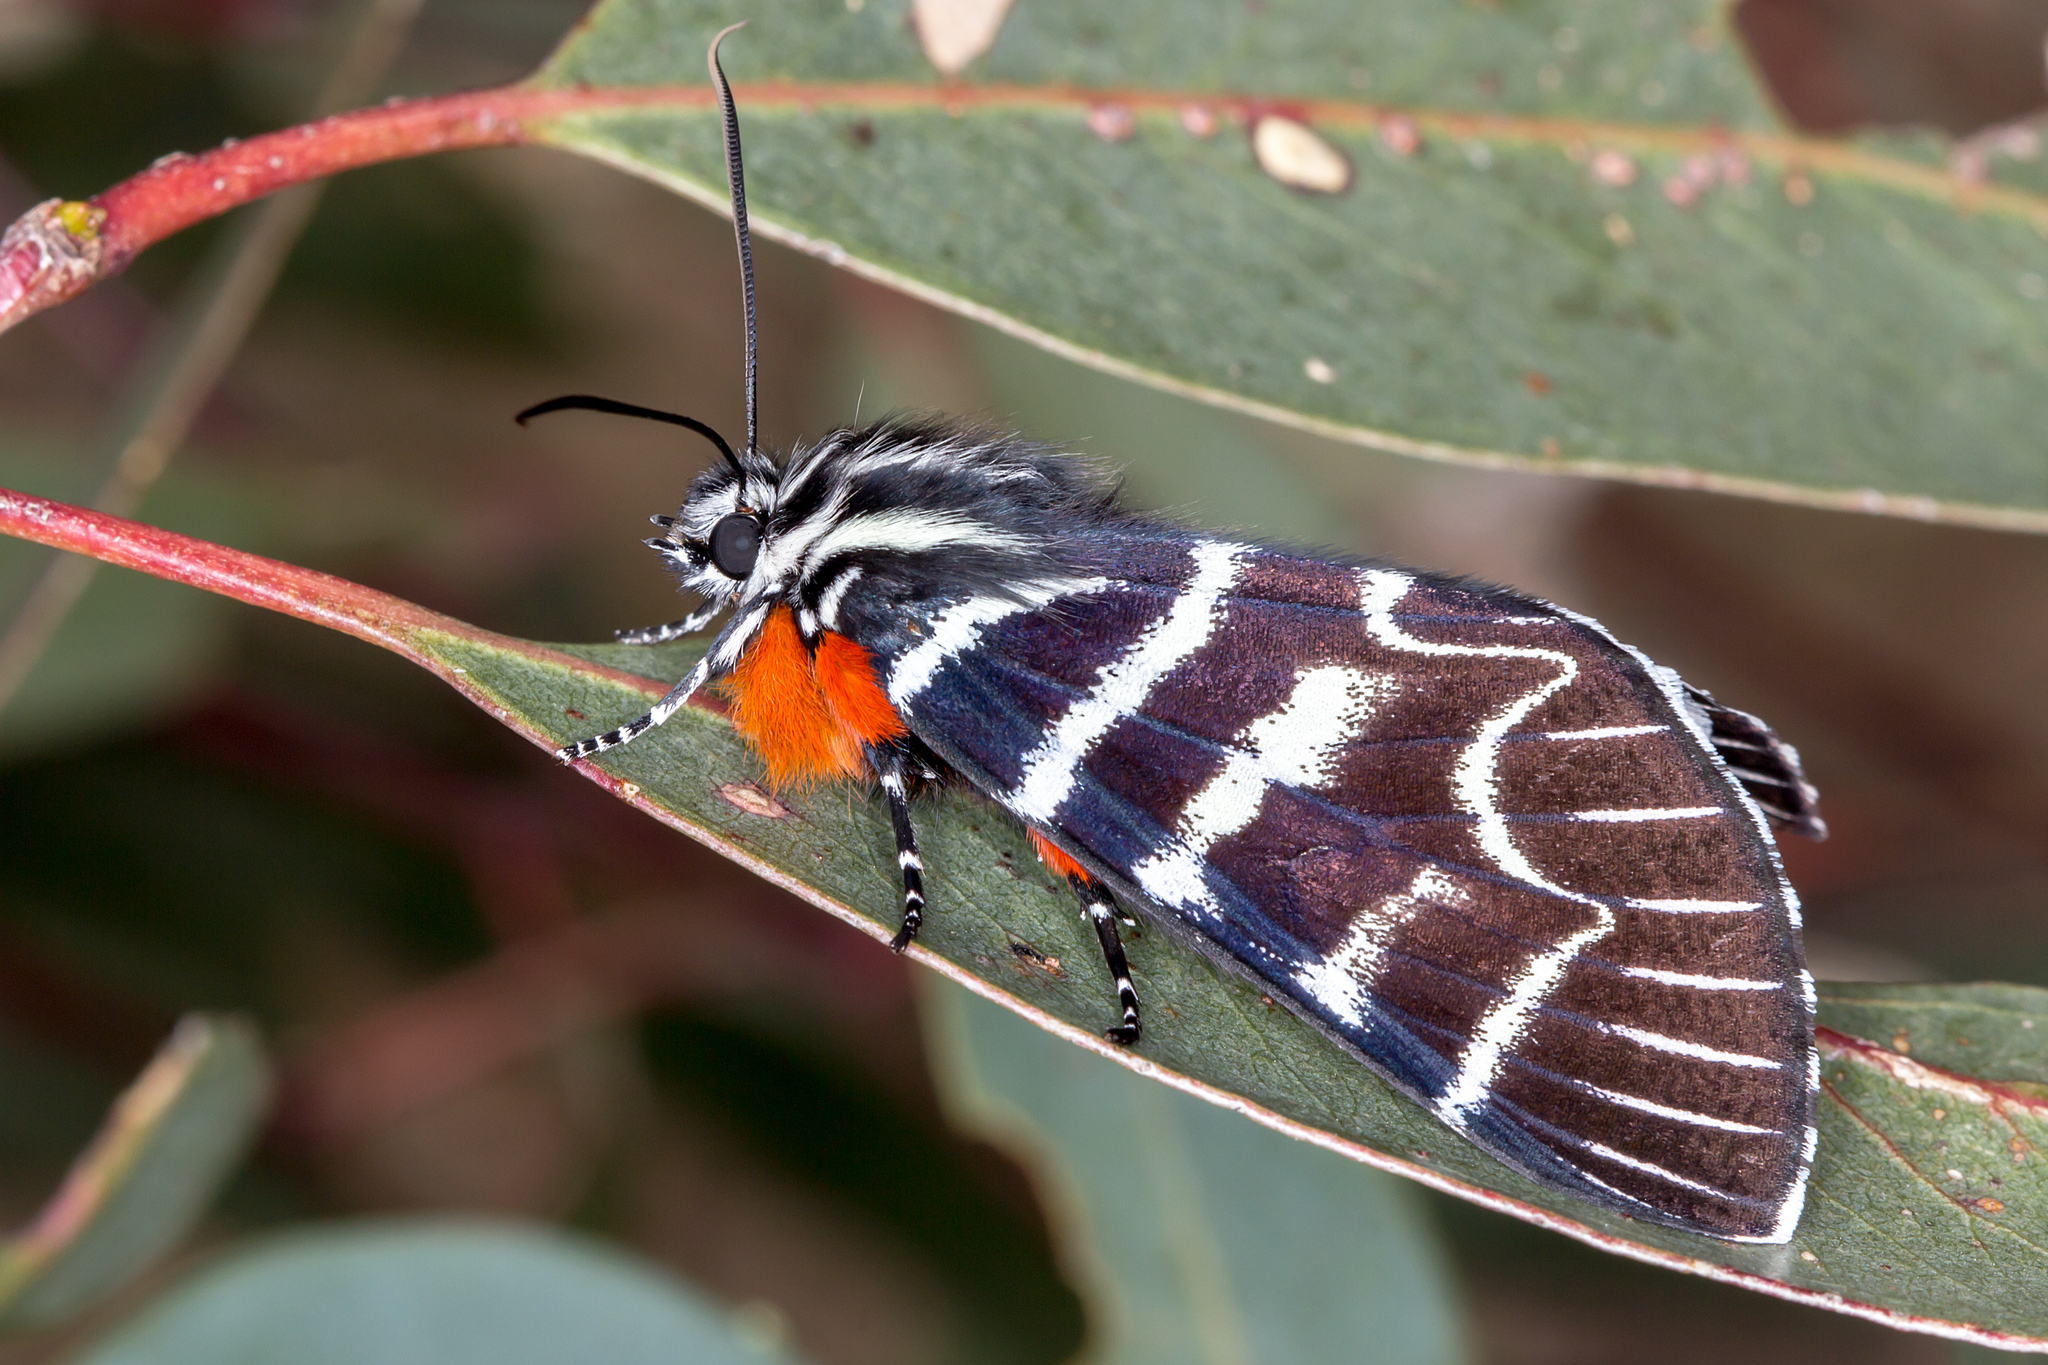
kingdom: Animalia
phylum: Arthropoda
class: Insecta
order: Lepidoptera
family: Noctuidae
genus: Comocrus
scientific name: Comocrus behri
